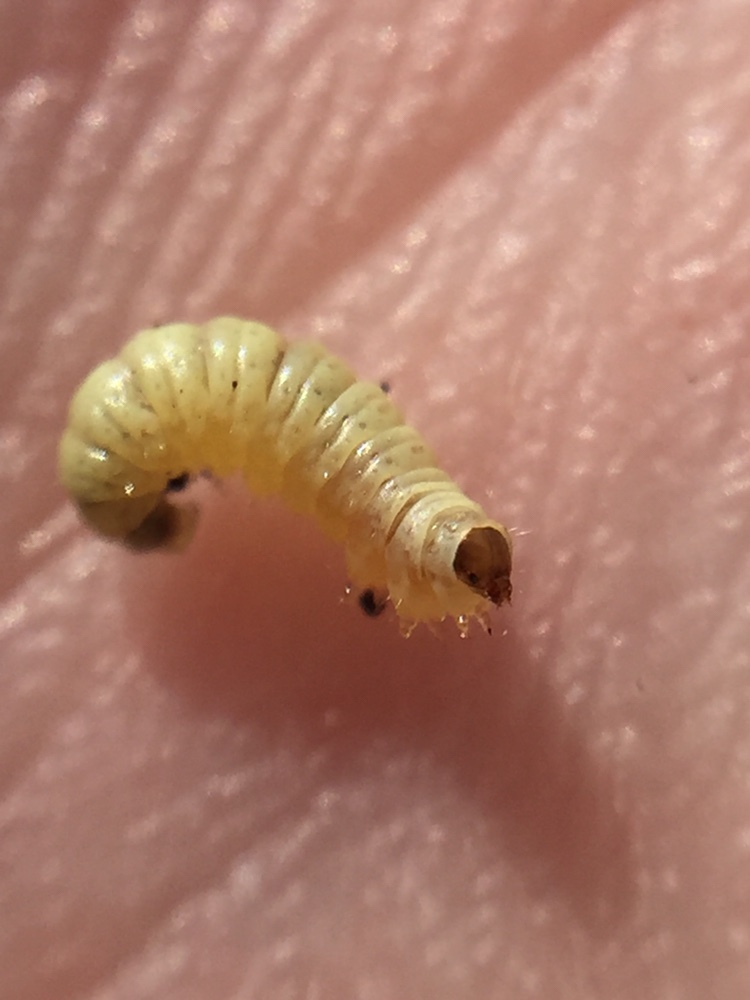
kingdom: Animalia
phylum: Arthropoda
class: Insecta
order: Lepidoptera
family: Pterophoridae
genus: Lantanophaga
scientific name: Lantanophaga pusillidactylus
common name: Moth
